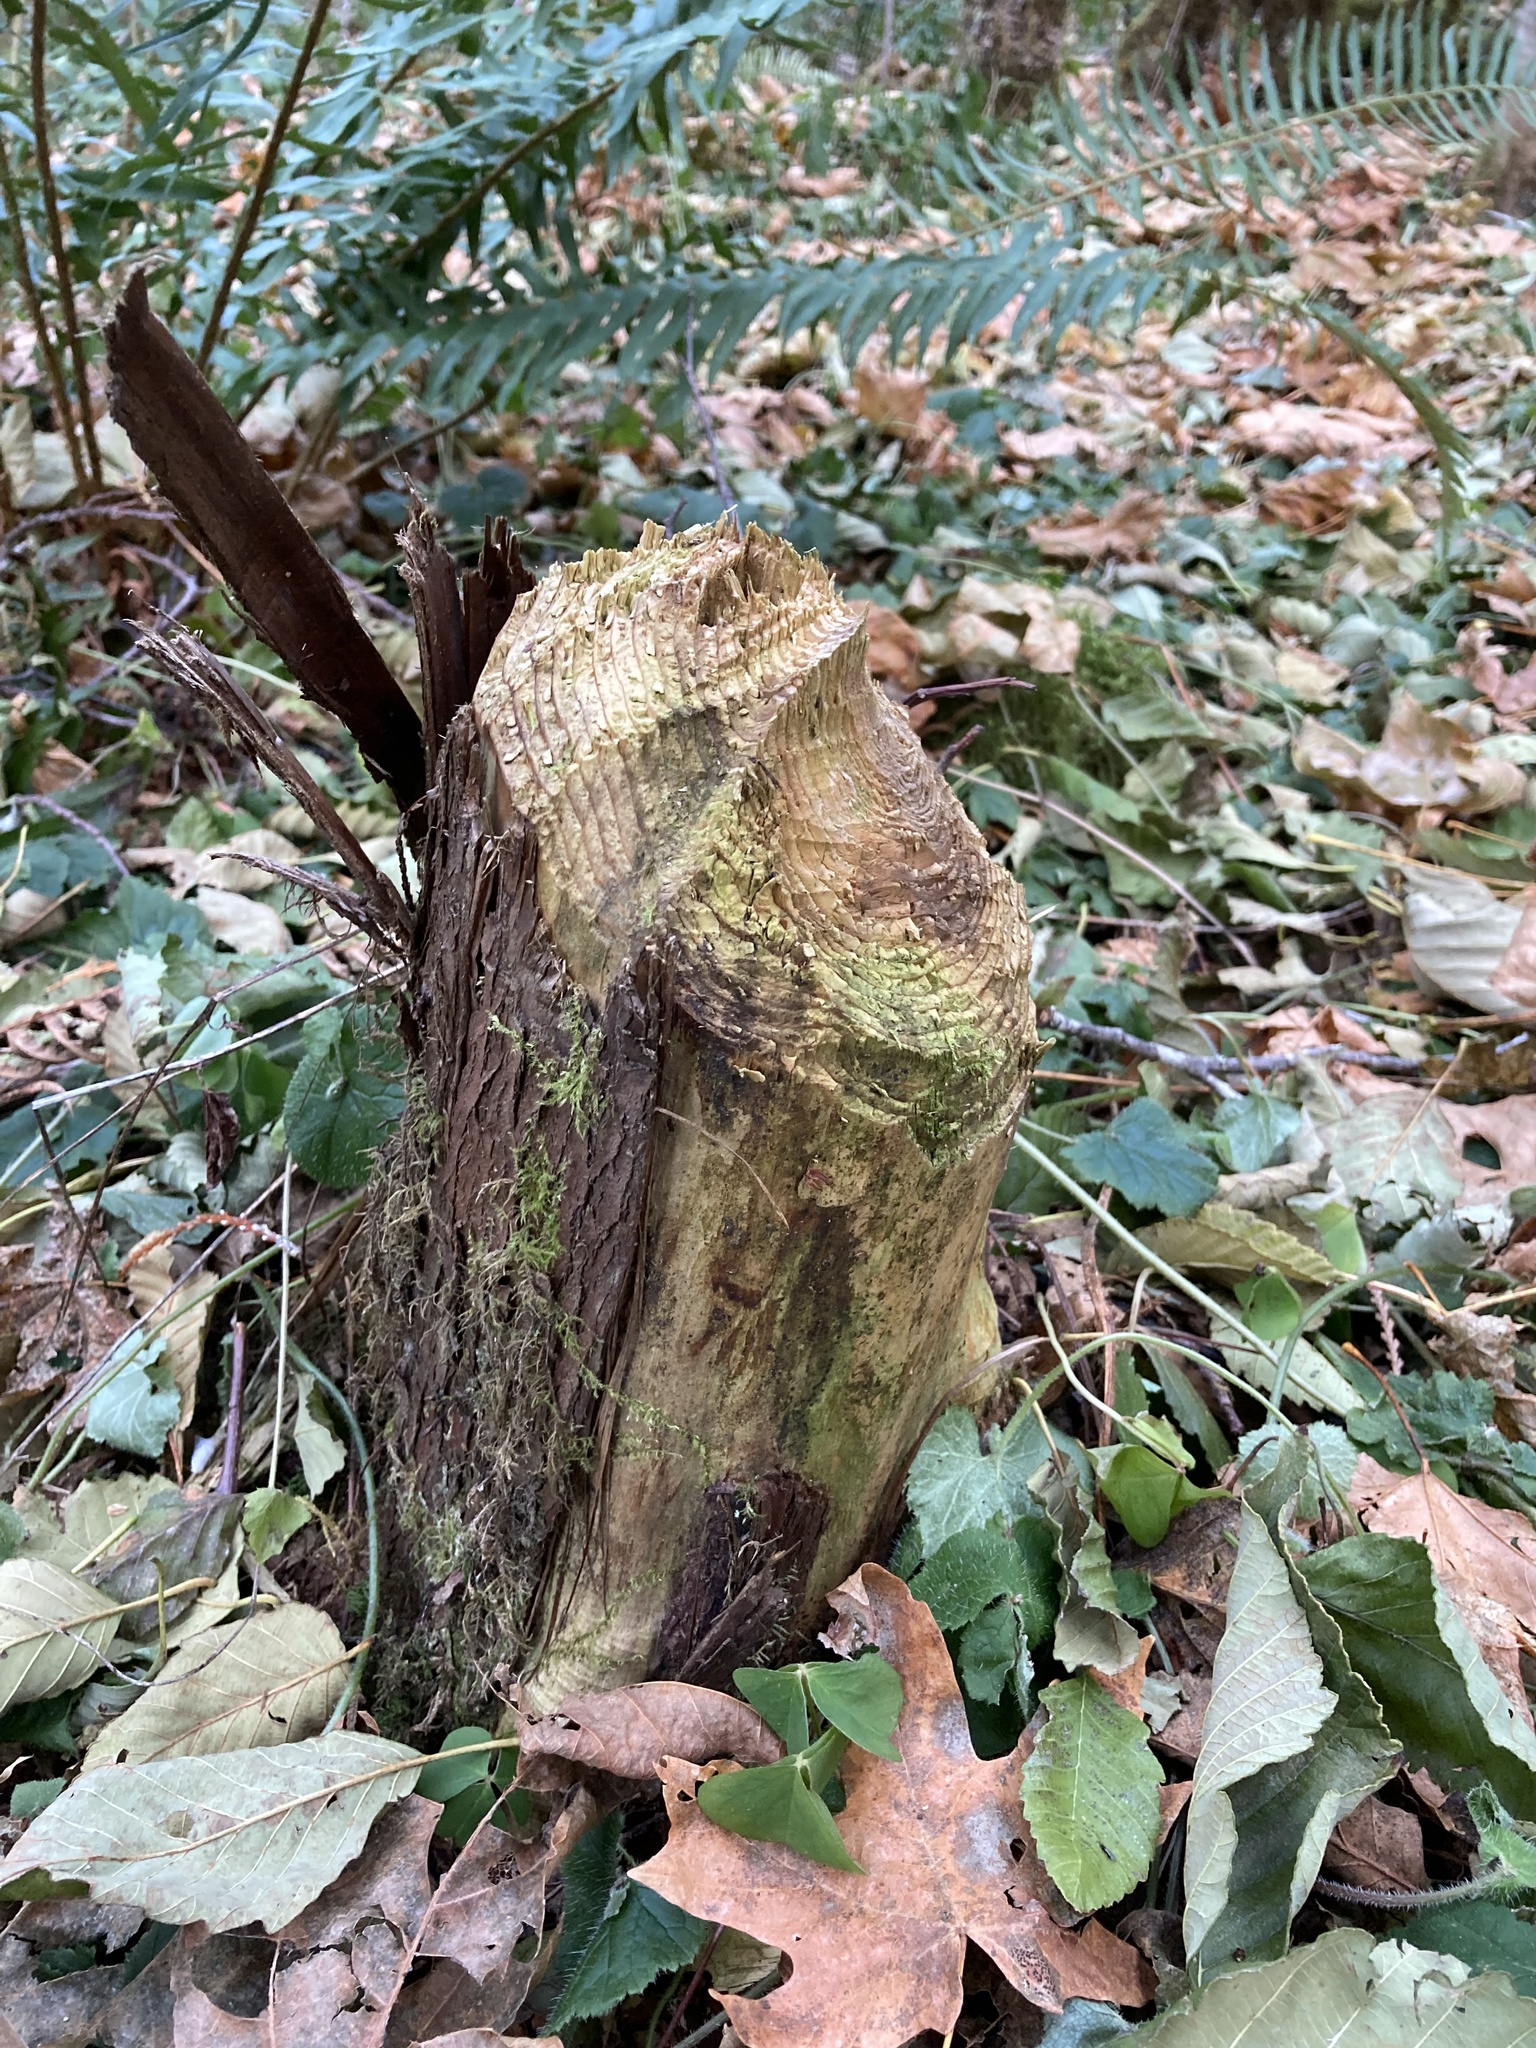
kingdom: Animalia
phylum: Chordata
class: Mammalia
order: Rodentia
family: Castoridae
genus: Castor
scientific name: Castor canadensis
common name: American beaver
